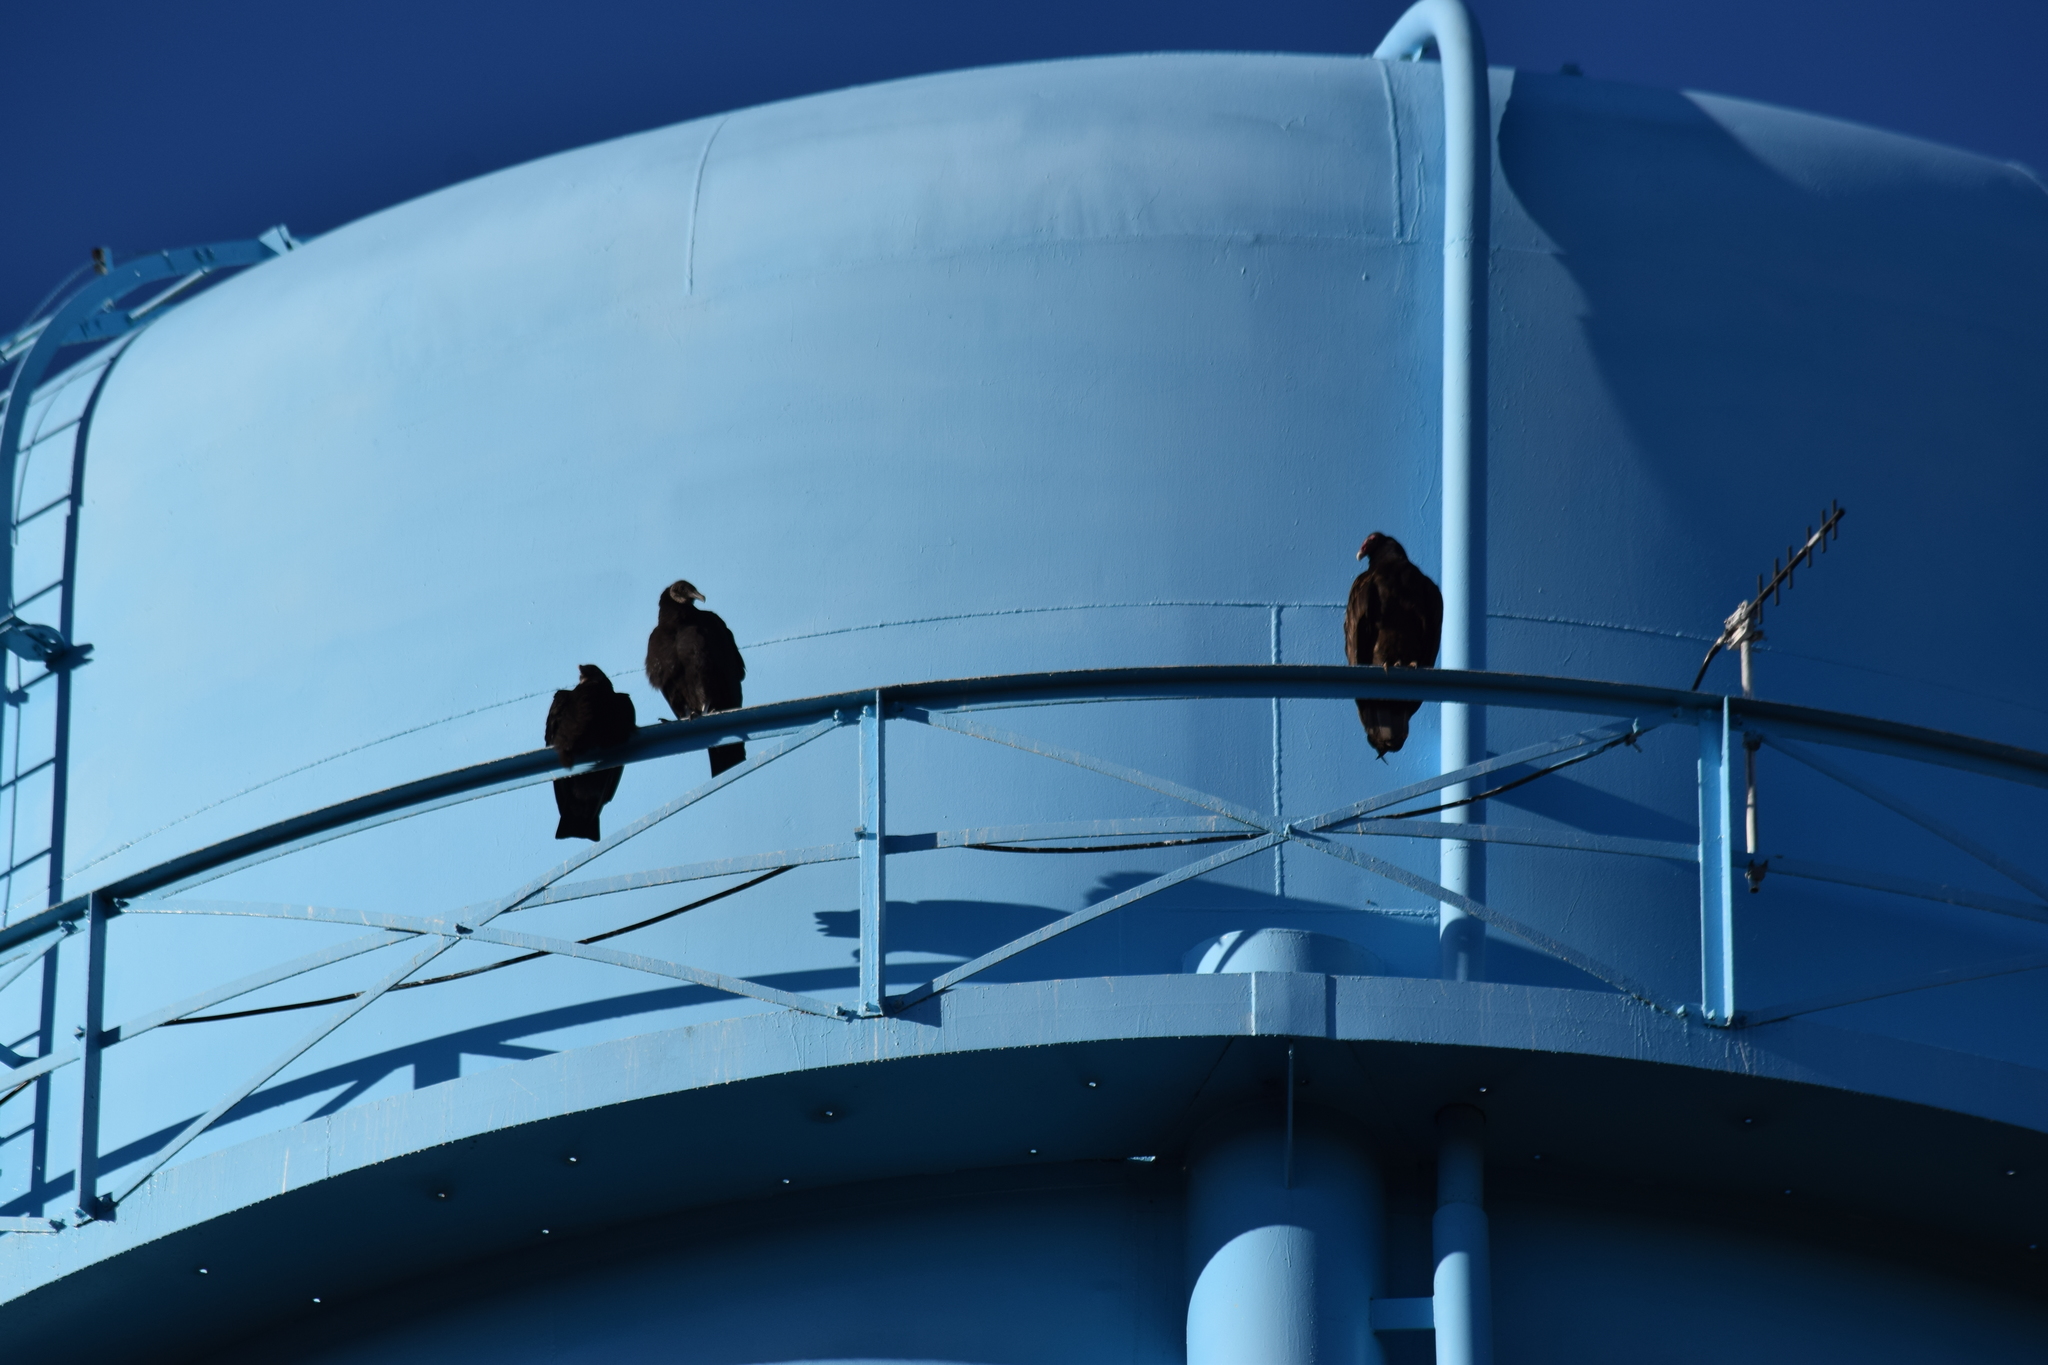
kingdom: Animalia
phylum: Chordata
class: Aves
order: Accipitriformes
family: Cathartidae
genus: Cathartes
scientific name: Cathartes aura
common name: Turkey vulture
